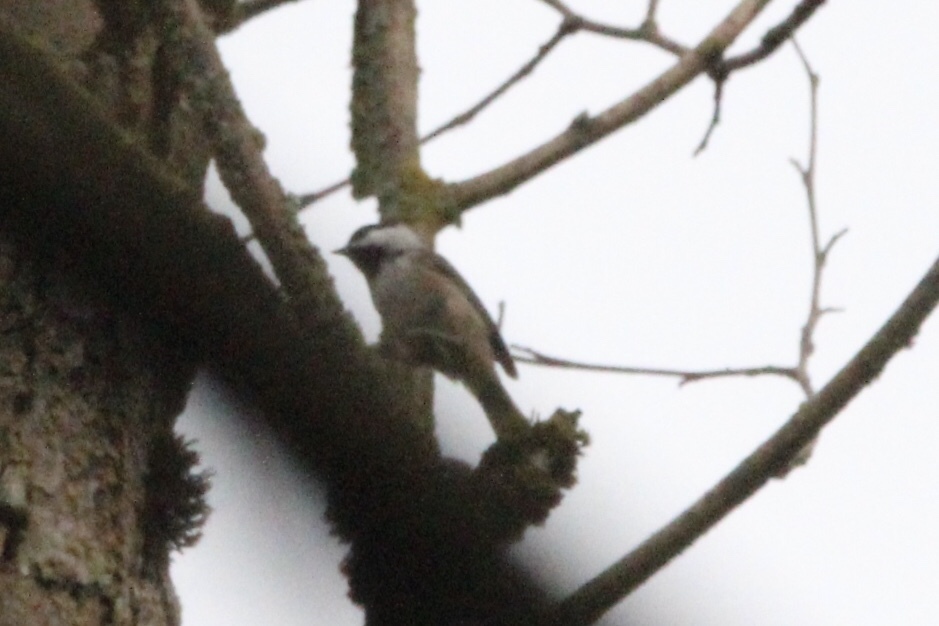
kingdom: Animalia
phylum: Chordata
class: Aves
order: Passeriformes
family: Paridae
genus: Poecile
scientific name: Poecile atricapillus
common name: Black-capped chickadee
